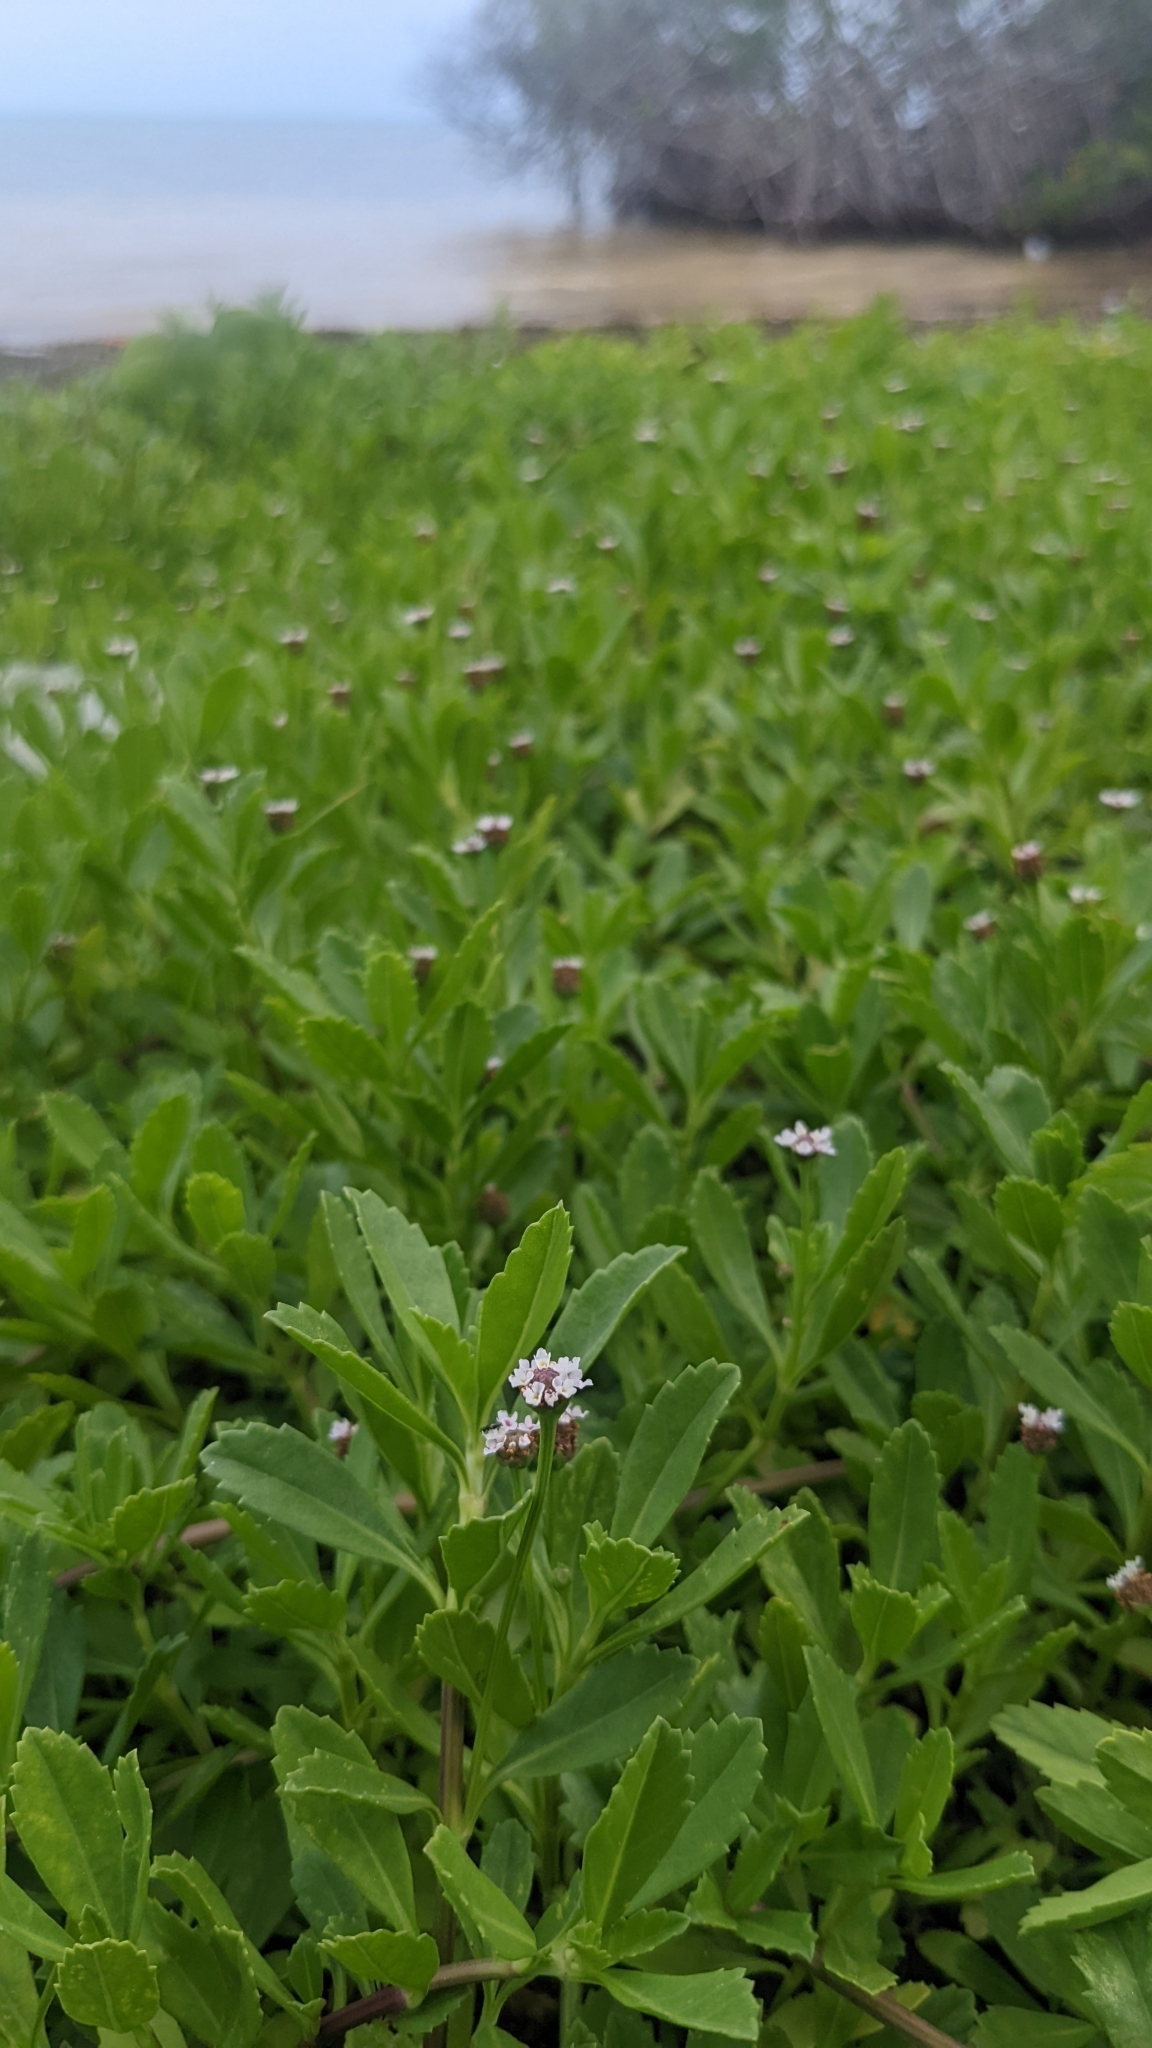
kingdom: Plantae
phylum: Tracheophyta
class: Magnoliopsida
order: Lamiales
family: Verbenaceae
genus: Phyla
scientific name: Phyla nodiflora
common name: Frogfruit
